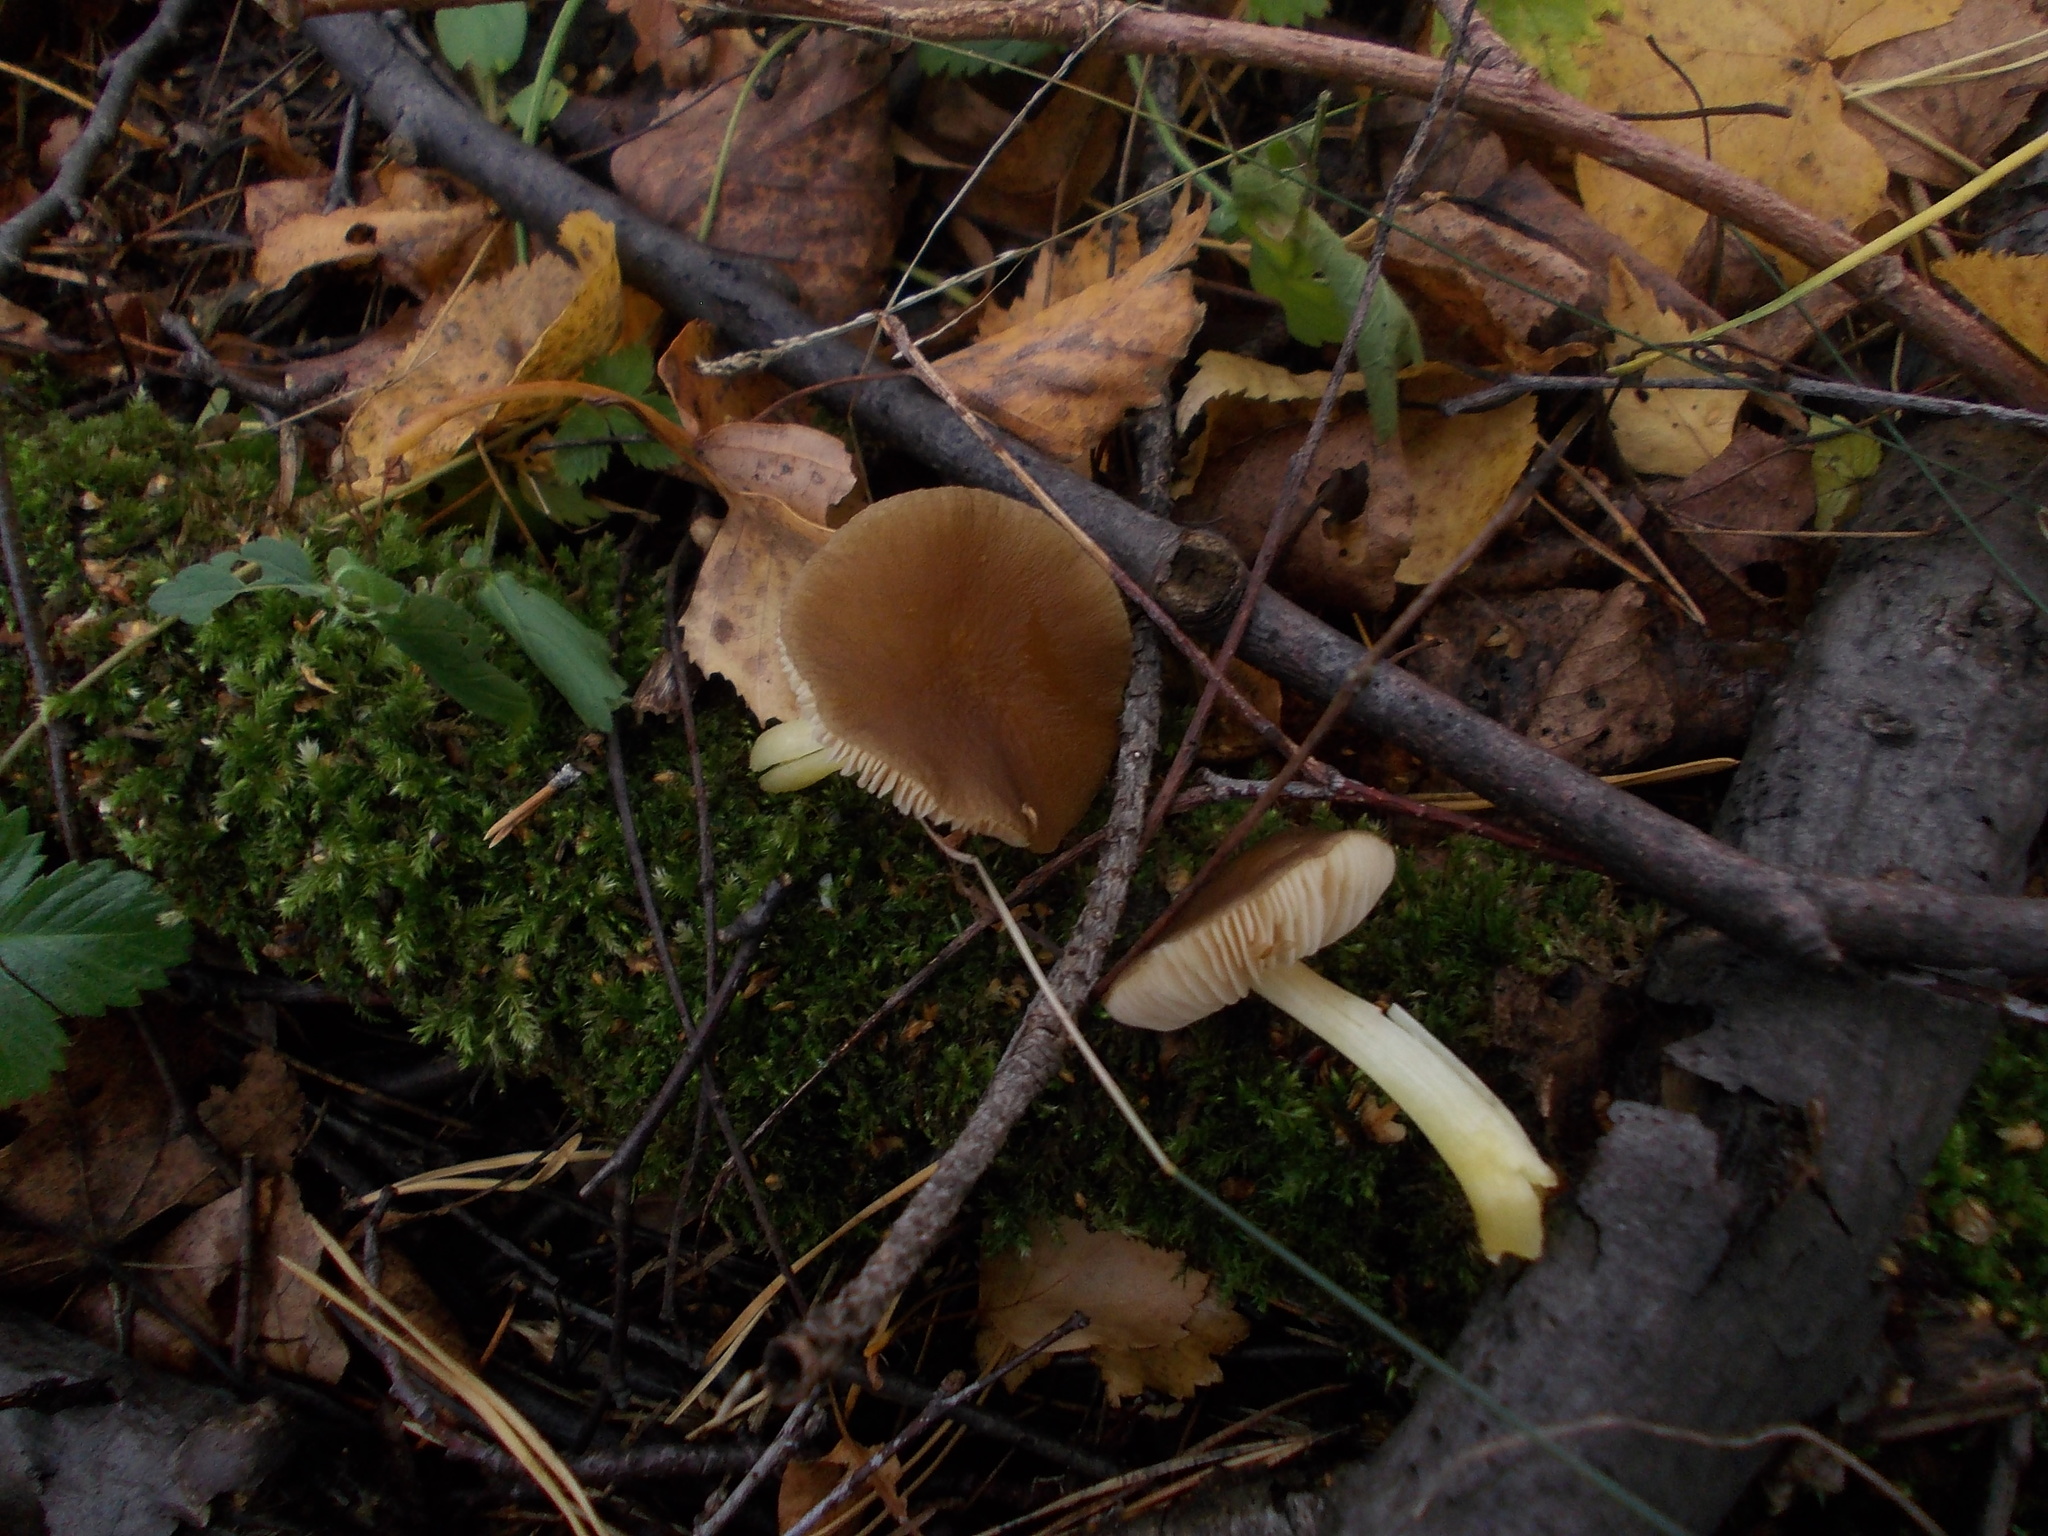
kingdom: Fungi
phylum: Basidiomycota
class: Agaricomycetes
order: Agaricales
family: Pluteaceae
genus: Pluteus
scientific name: Pluteus romellii
